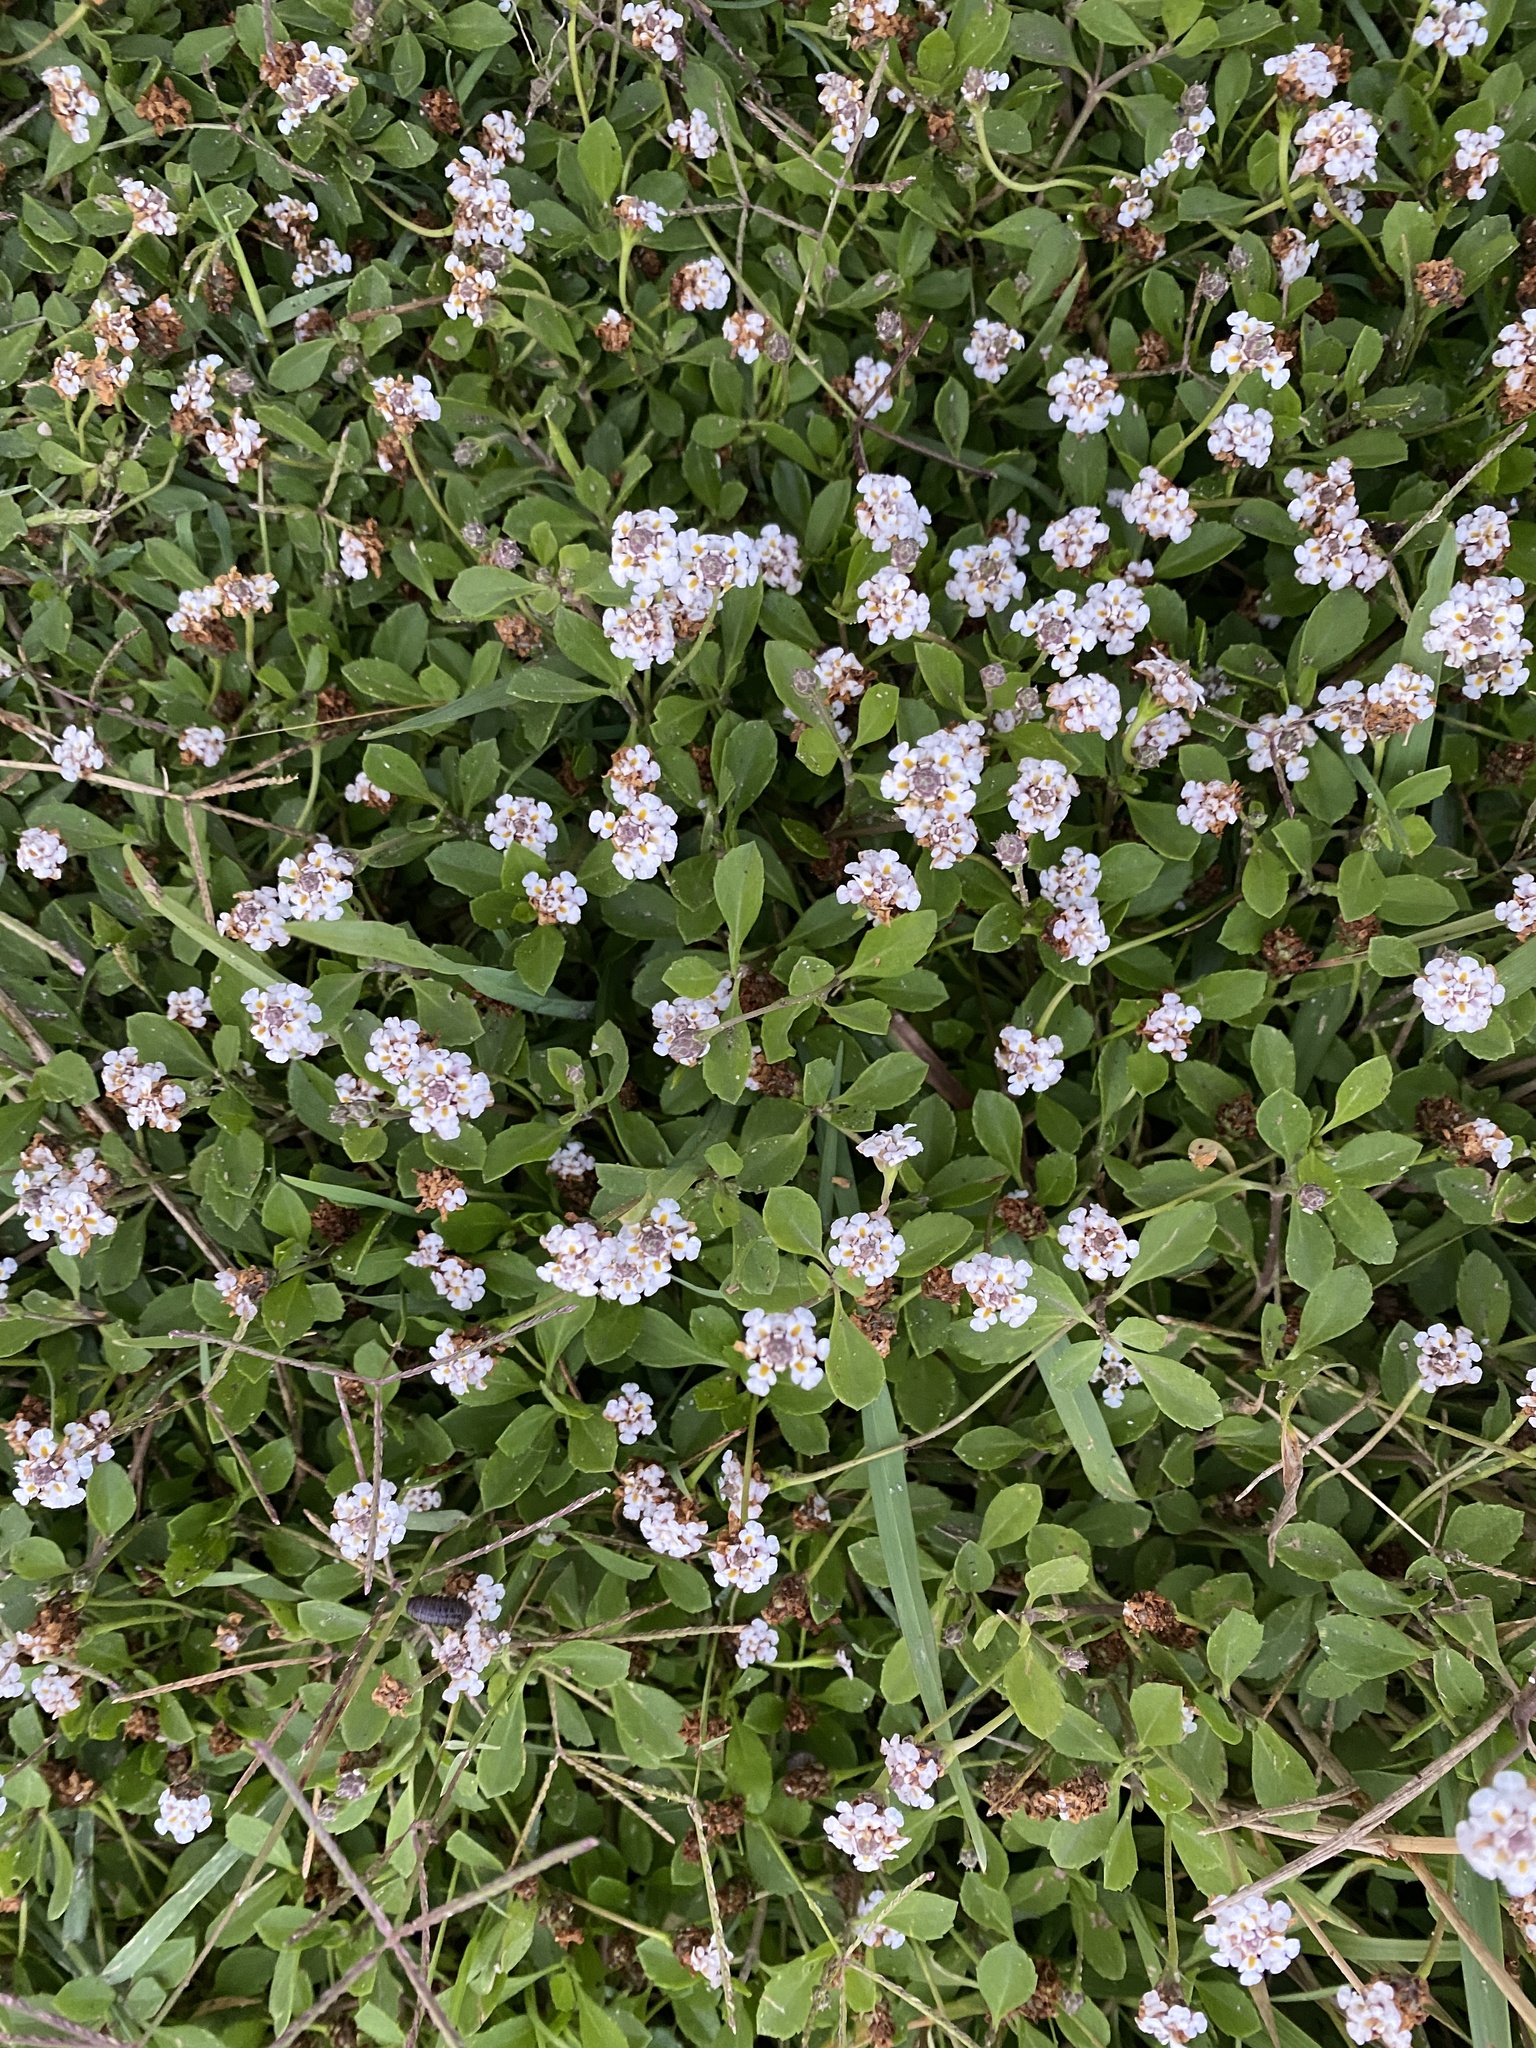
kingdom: Plantae
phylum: Tracheophyta
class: Magnoliopsida
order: Lamiales
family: Verbenaceae
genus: Phyla
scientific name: Phyla nodiflora
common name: Frogfruit
